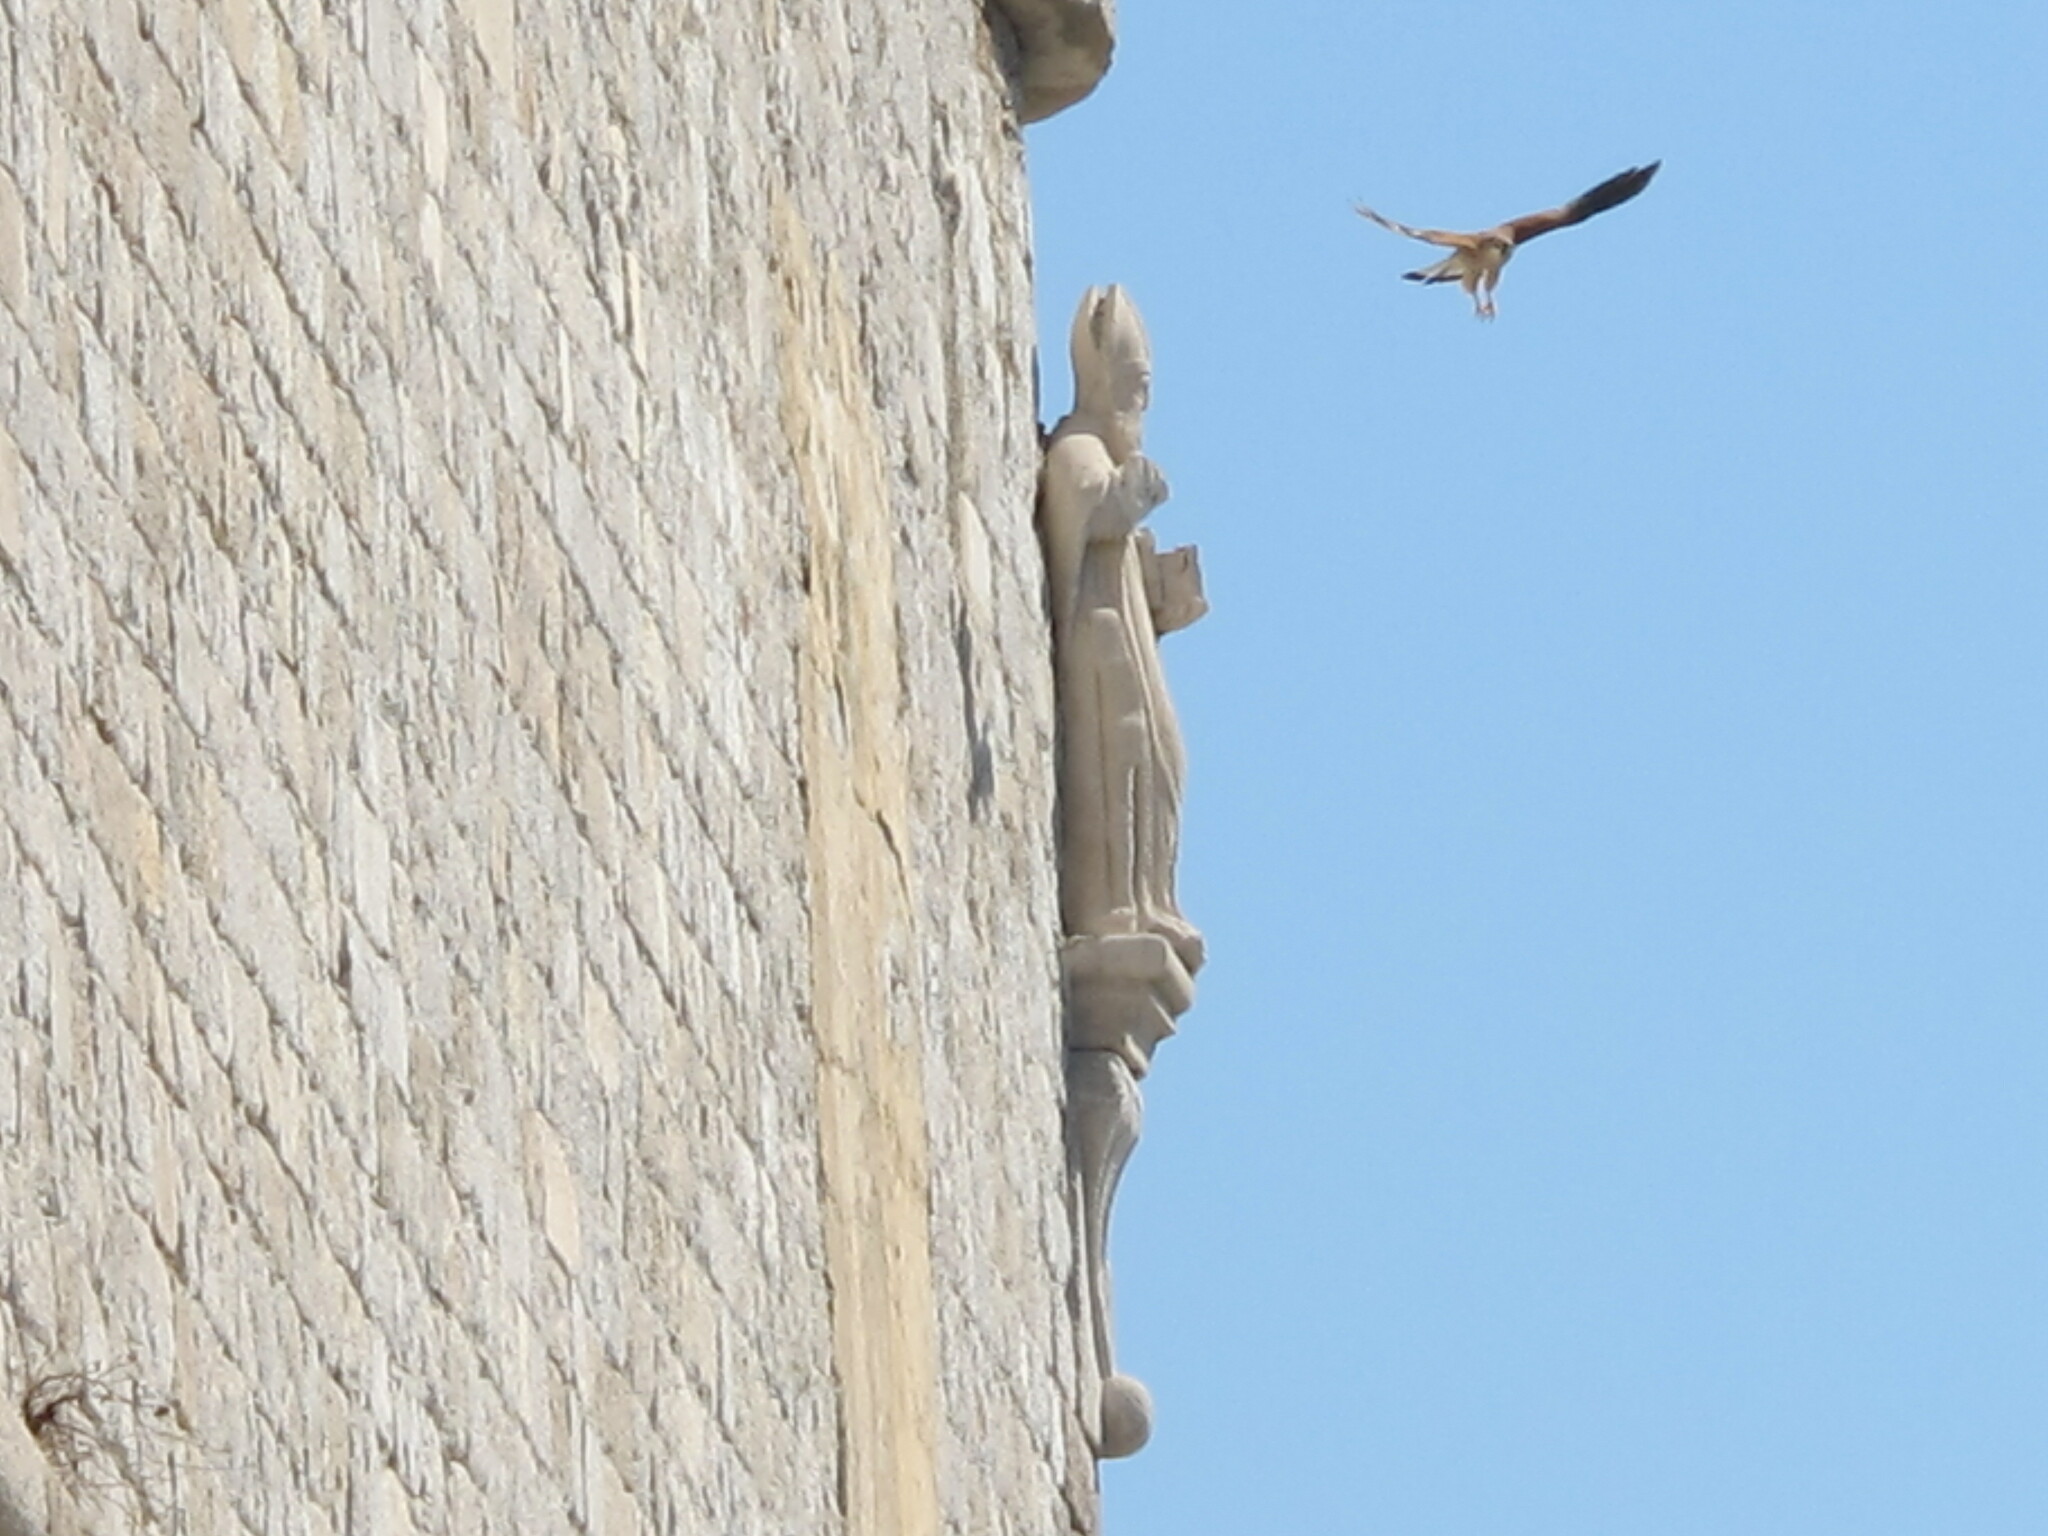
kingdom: Animalia
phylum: Chordata
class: Aves
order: Falconiformes
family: Falconidae
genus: Falco
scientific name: Falco tinnunculus
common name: Common kestrel
